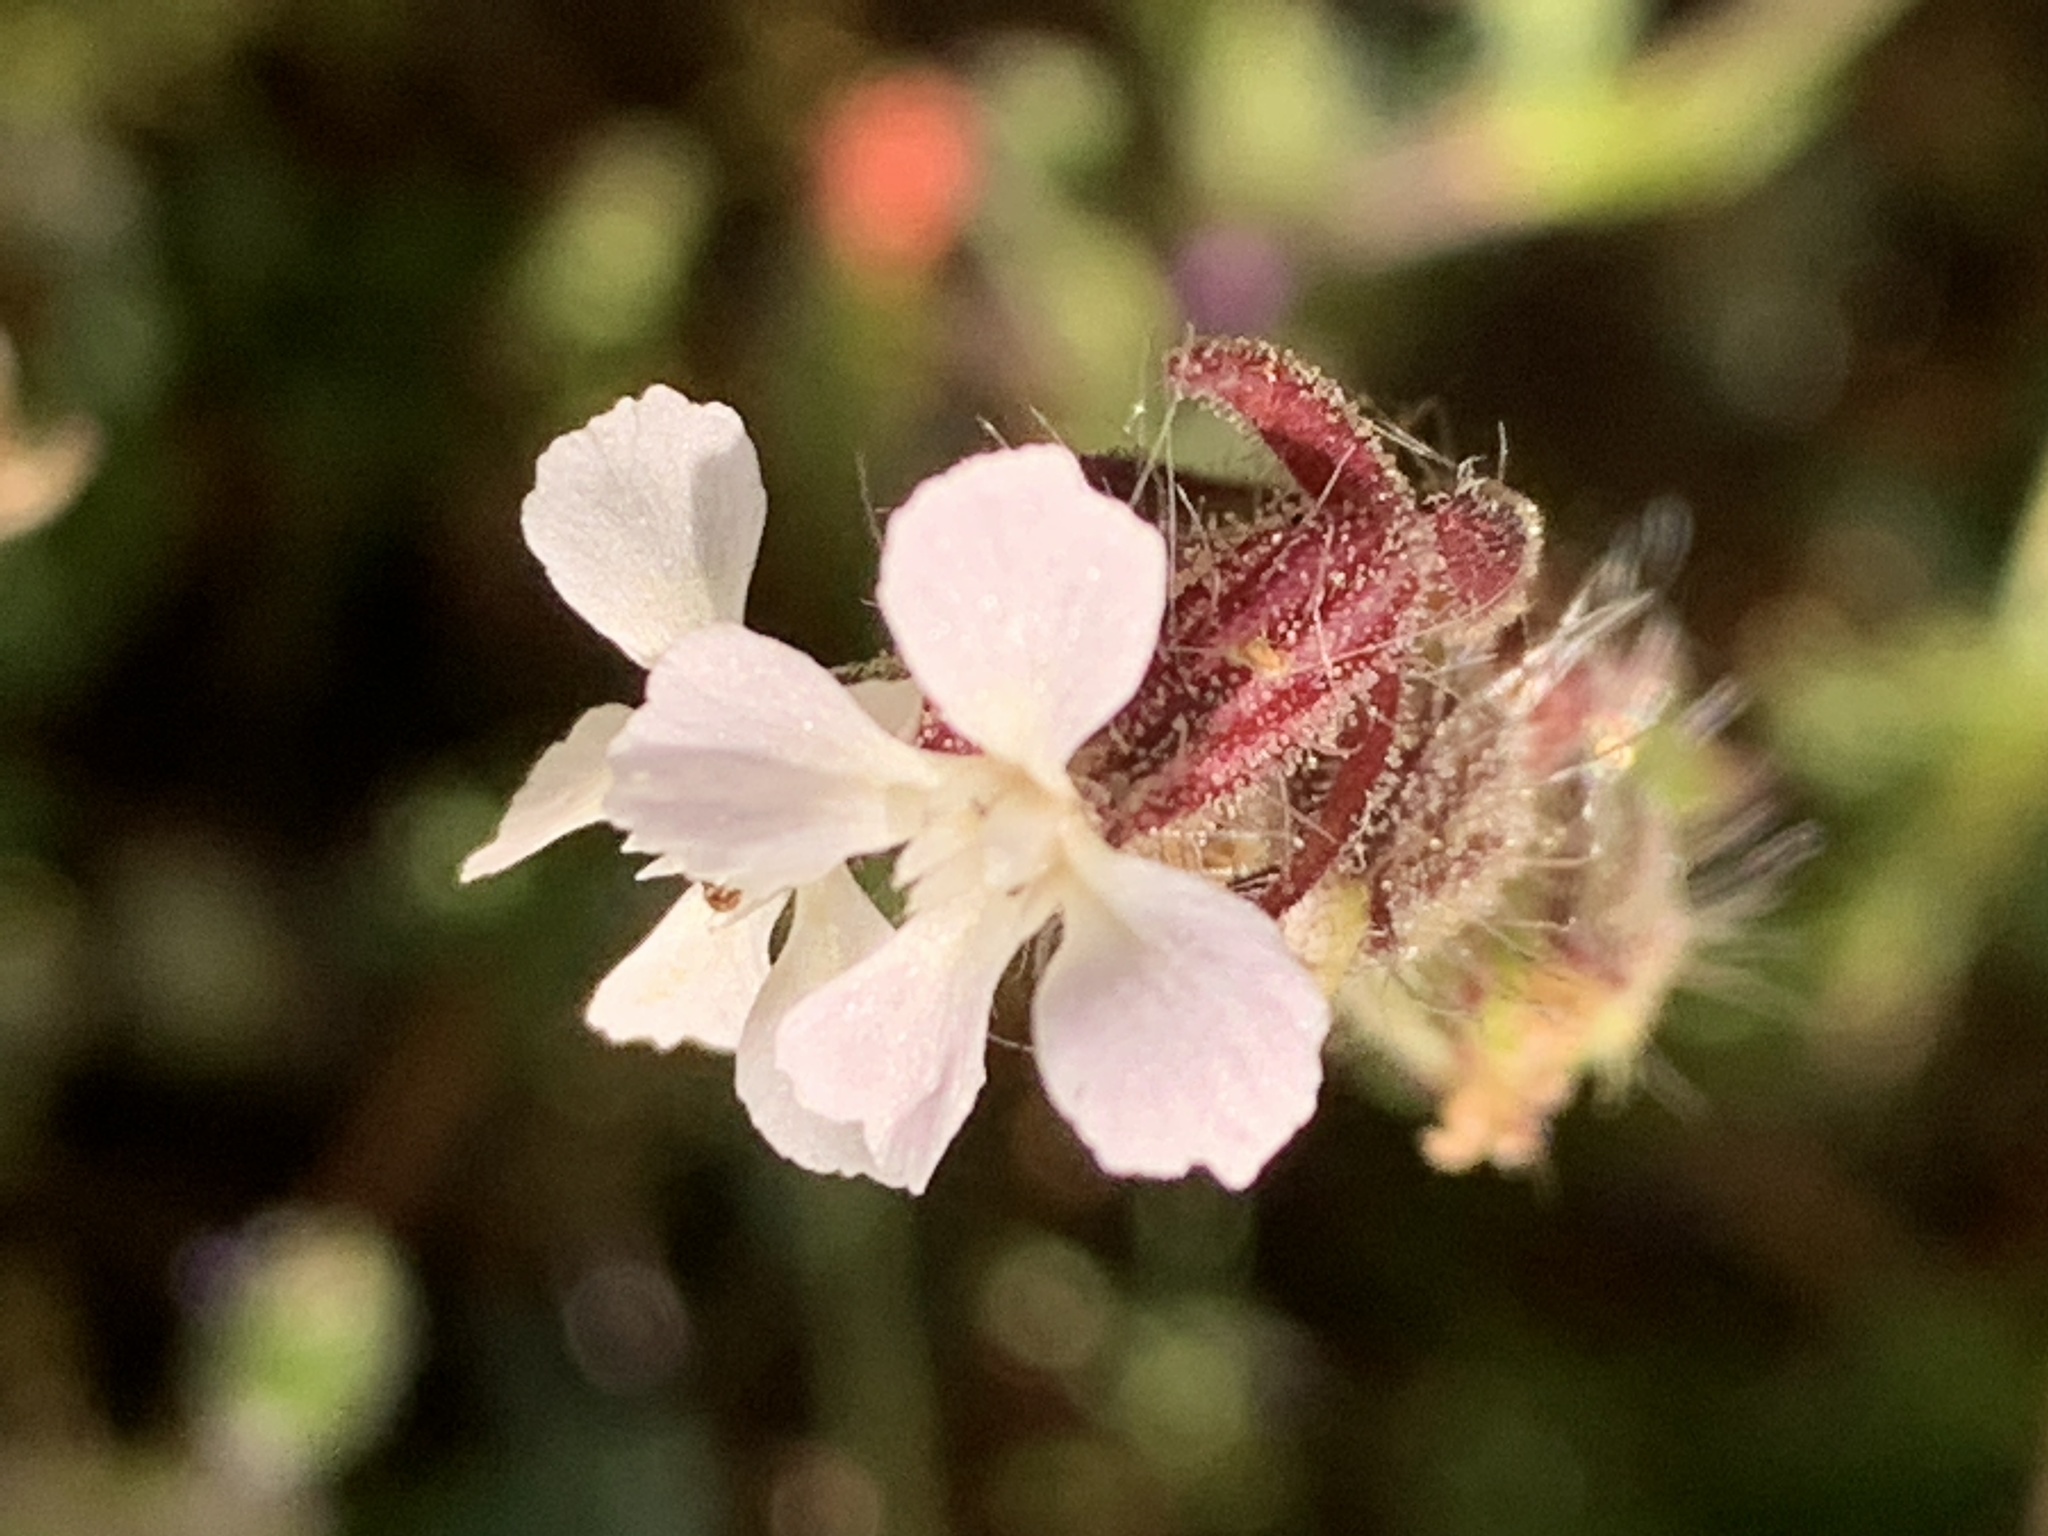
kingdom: Plantae
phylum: Tracheophyta
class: Magnoliopsida
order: Caryophyllales
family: Caryophyllaceae
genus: Silene
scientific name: Silene gallica
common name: Small-flowered catchfly
